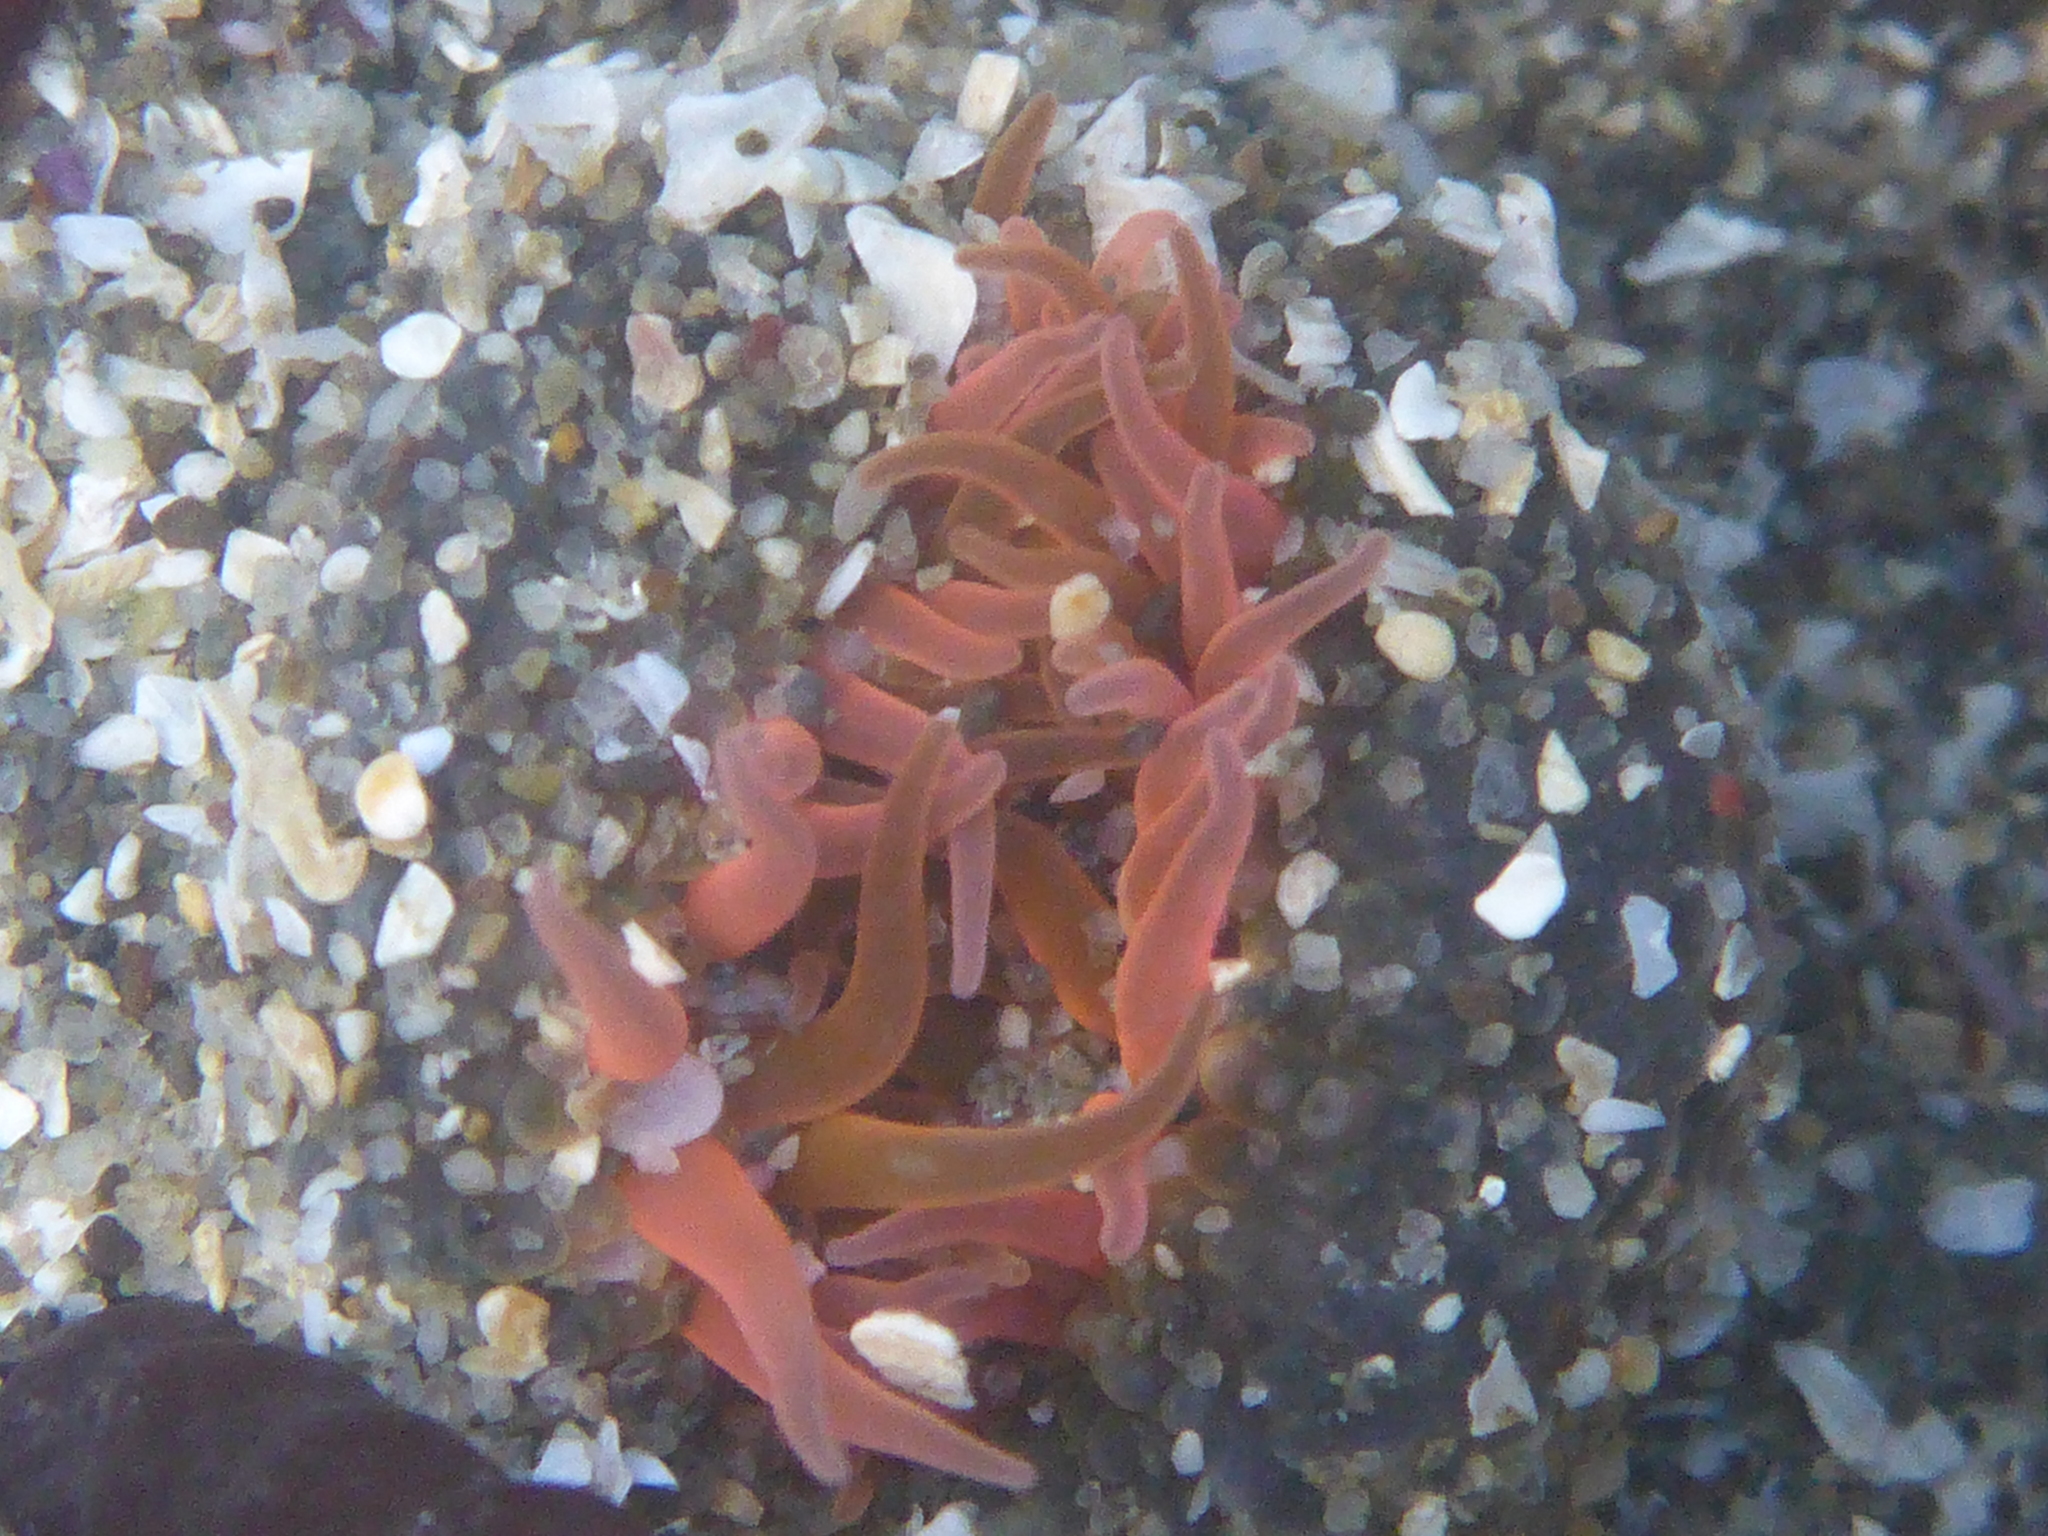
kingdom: Animalia
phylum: Cnidaria
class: Anthozoa
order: Actiniaria
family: Actiniidae
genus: Anthopleura
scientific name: Anthopleura artemisia
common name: Buried sea anemone
